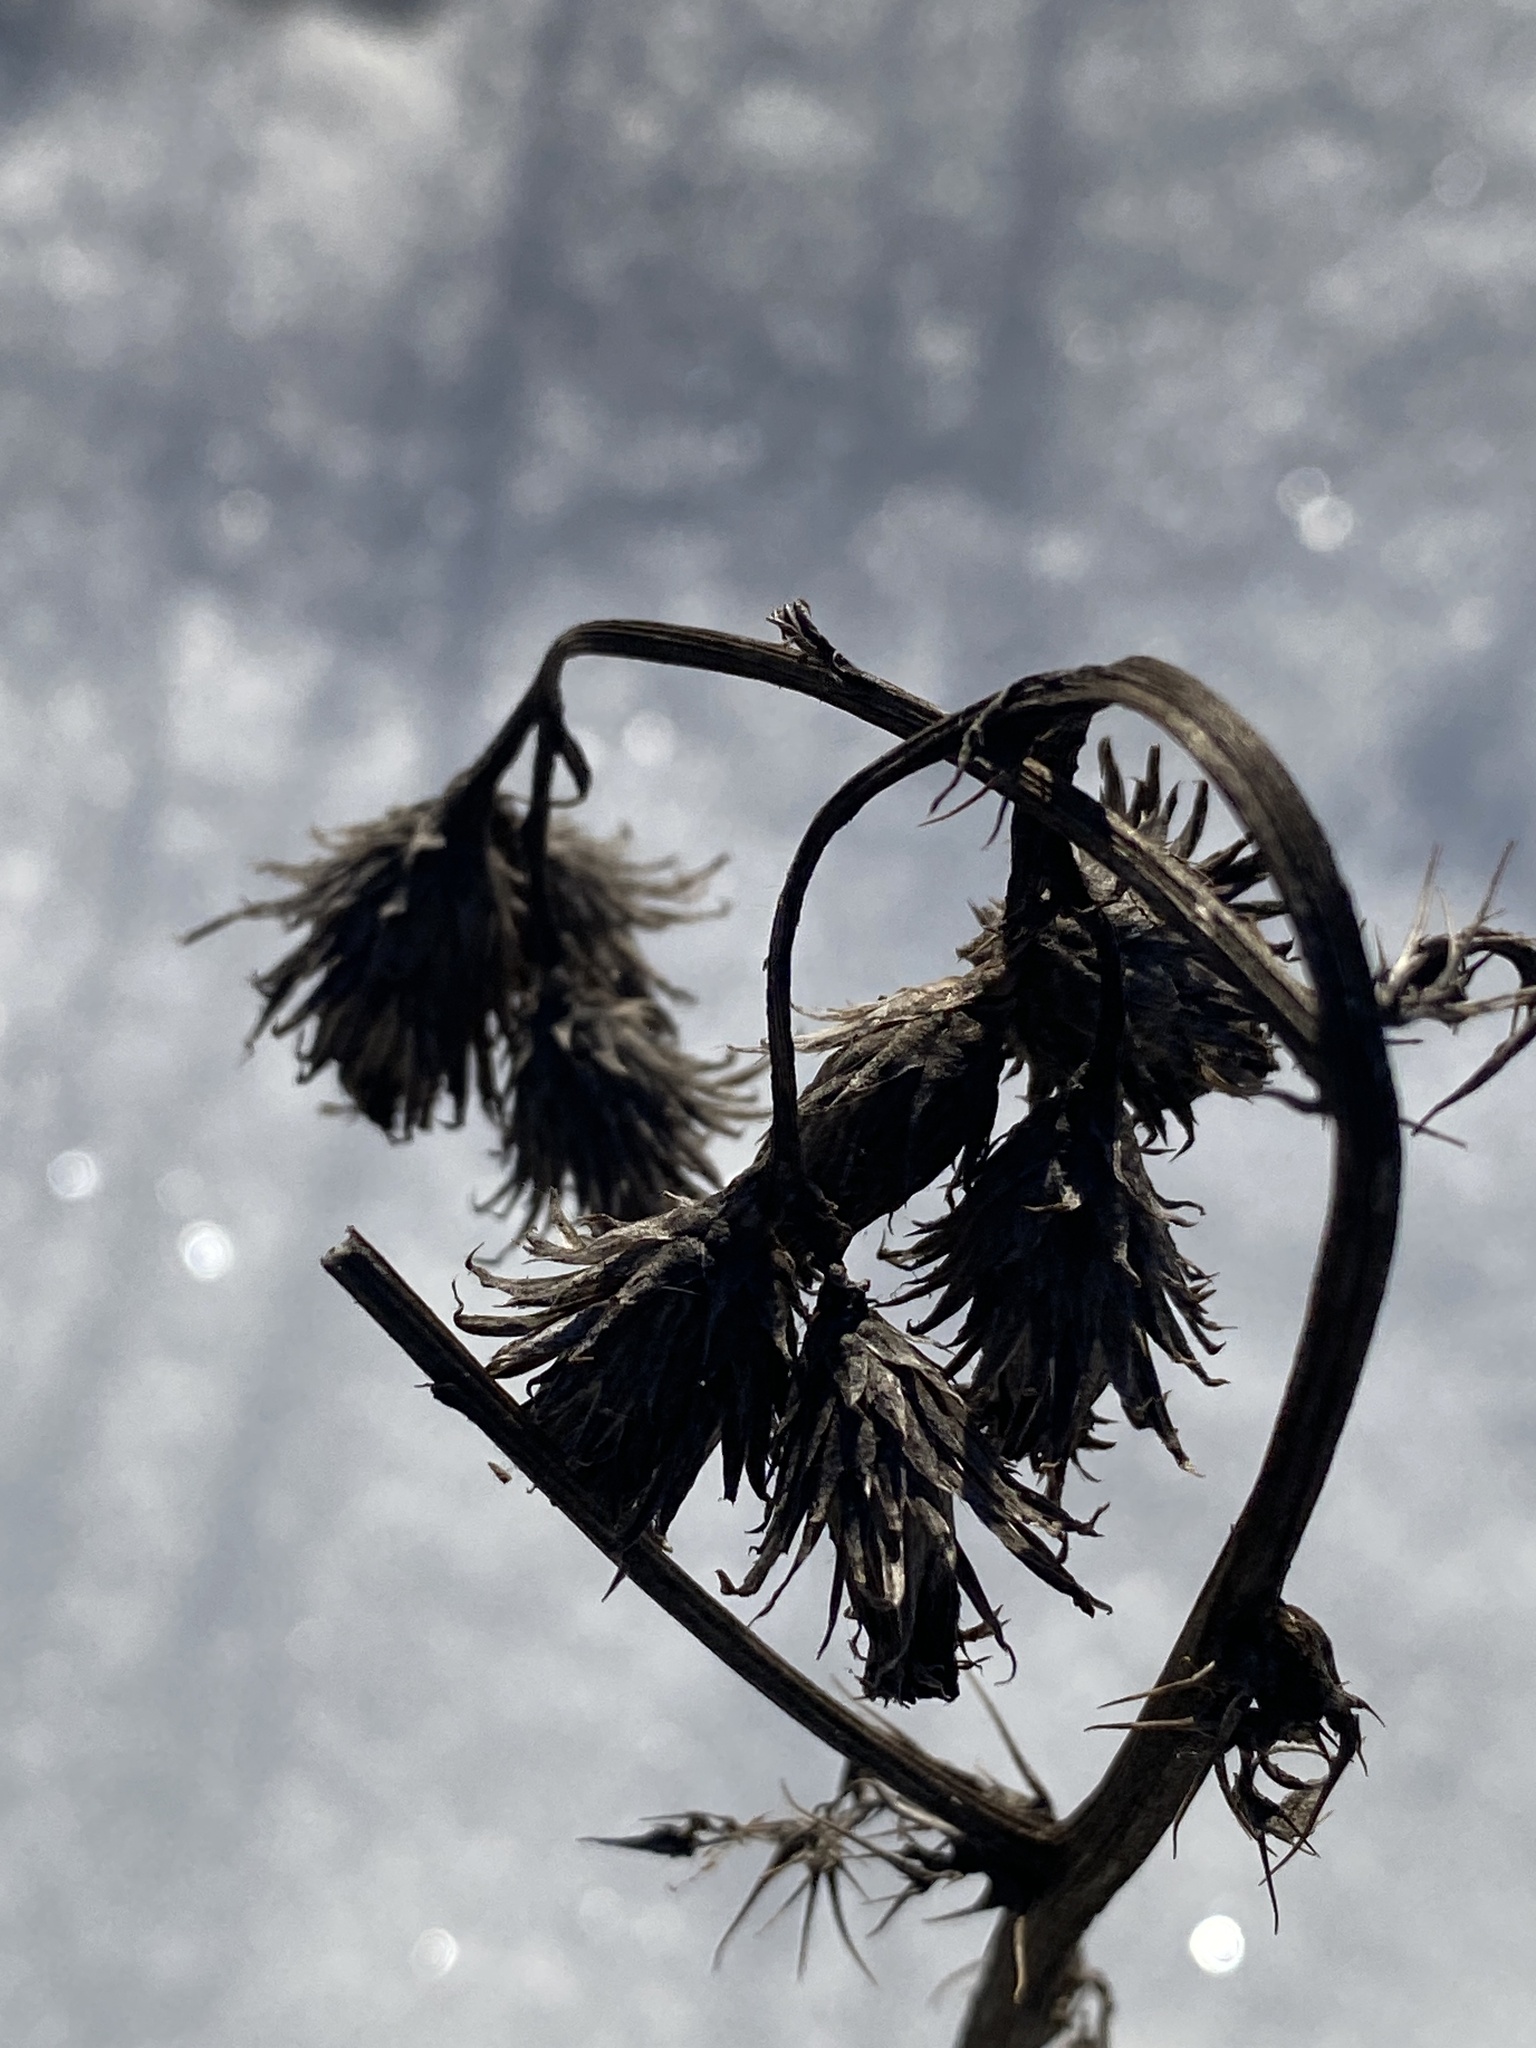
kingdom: Plantae
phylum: Tracheophyta
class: Magnoliopsida
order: Asterales
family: Asteraceae
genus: Cirsium
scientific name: Cirsium arvense
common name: Creeping thistle
